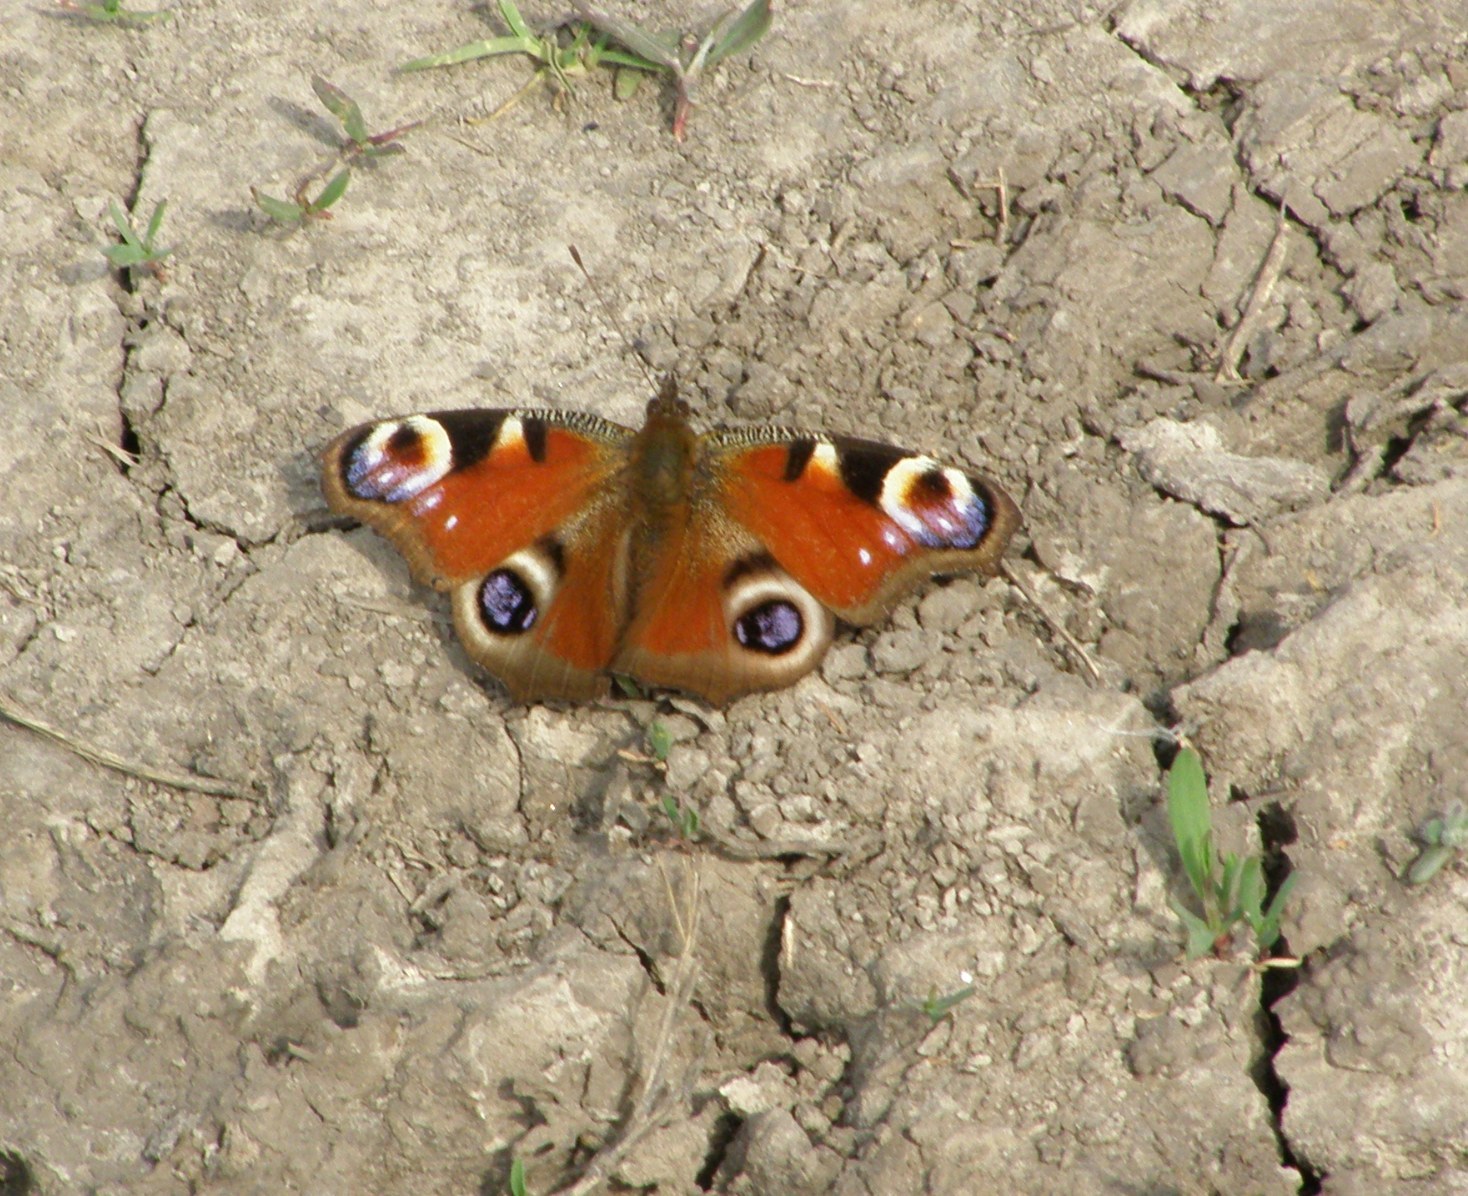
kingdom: Animalia
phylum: Arthropoda
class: Insecta
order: Lepidoptera
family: Nymphalidae
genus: Aglais
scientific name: Aglais io
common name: Peacock
